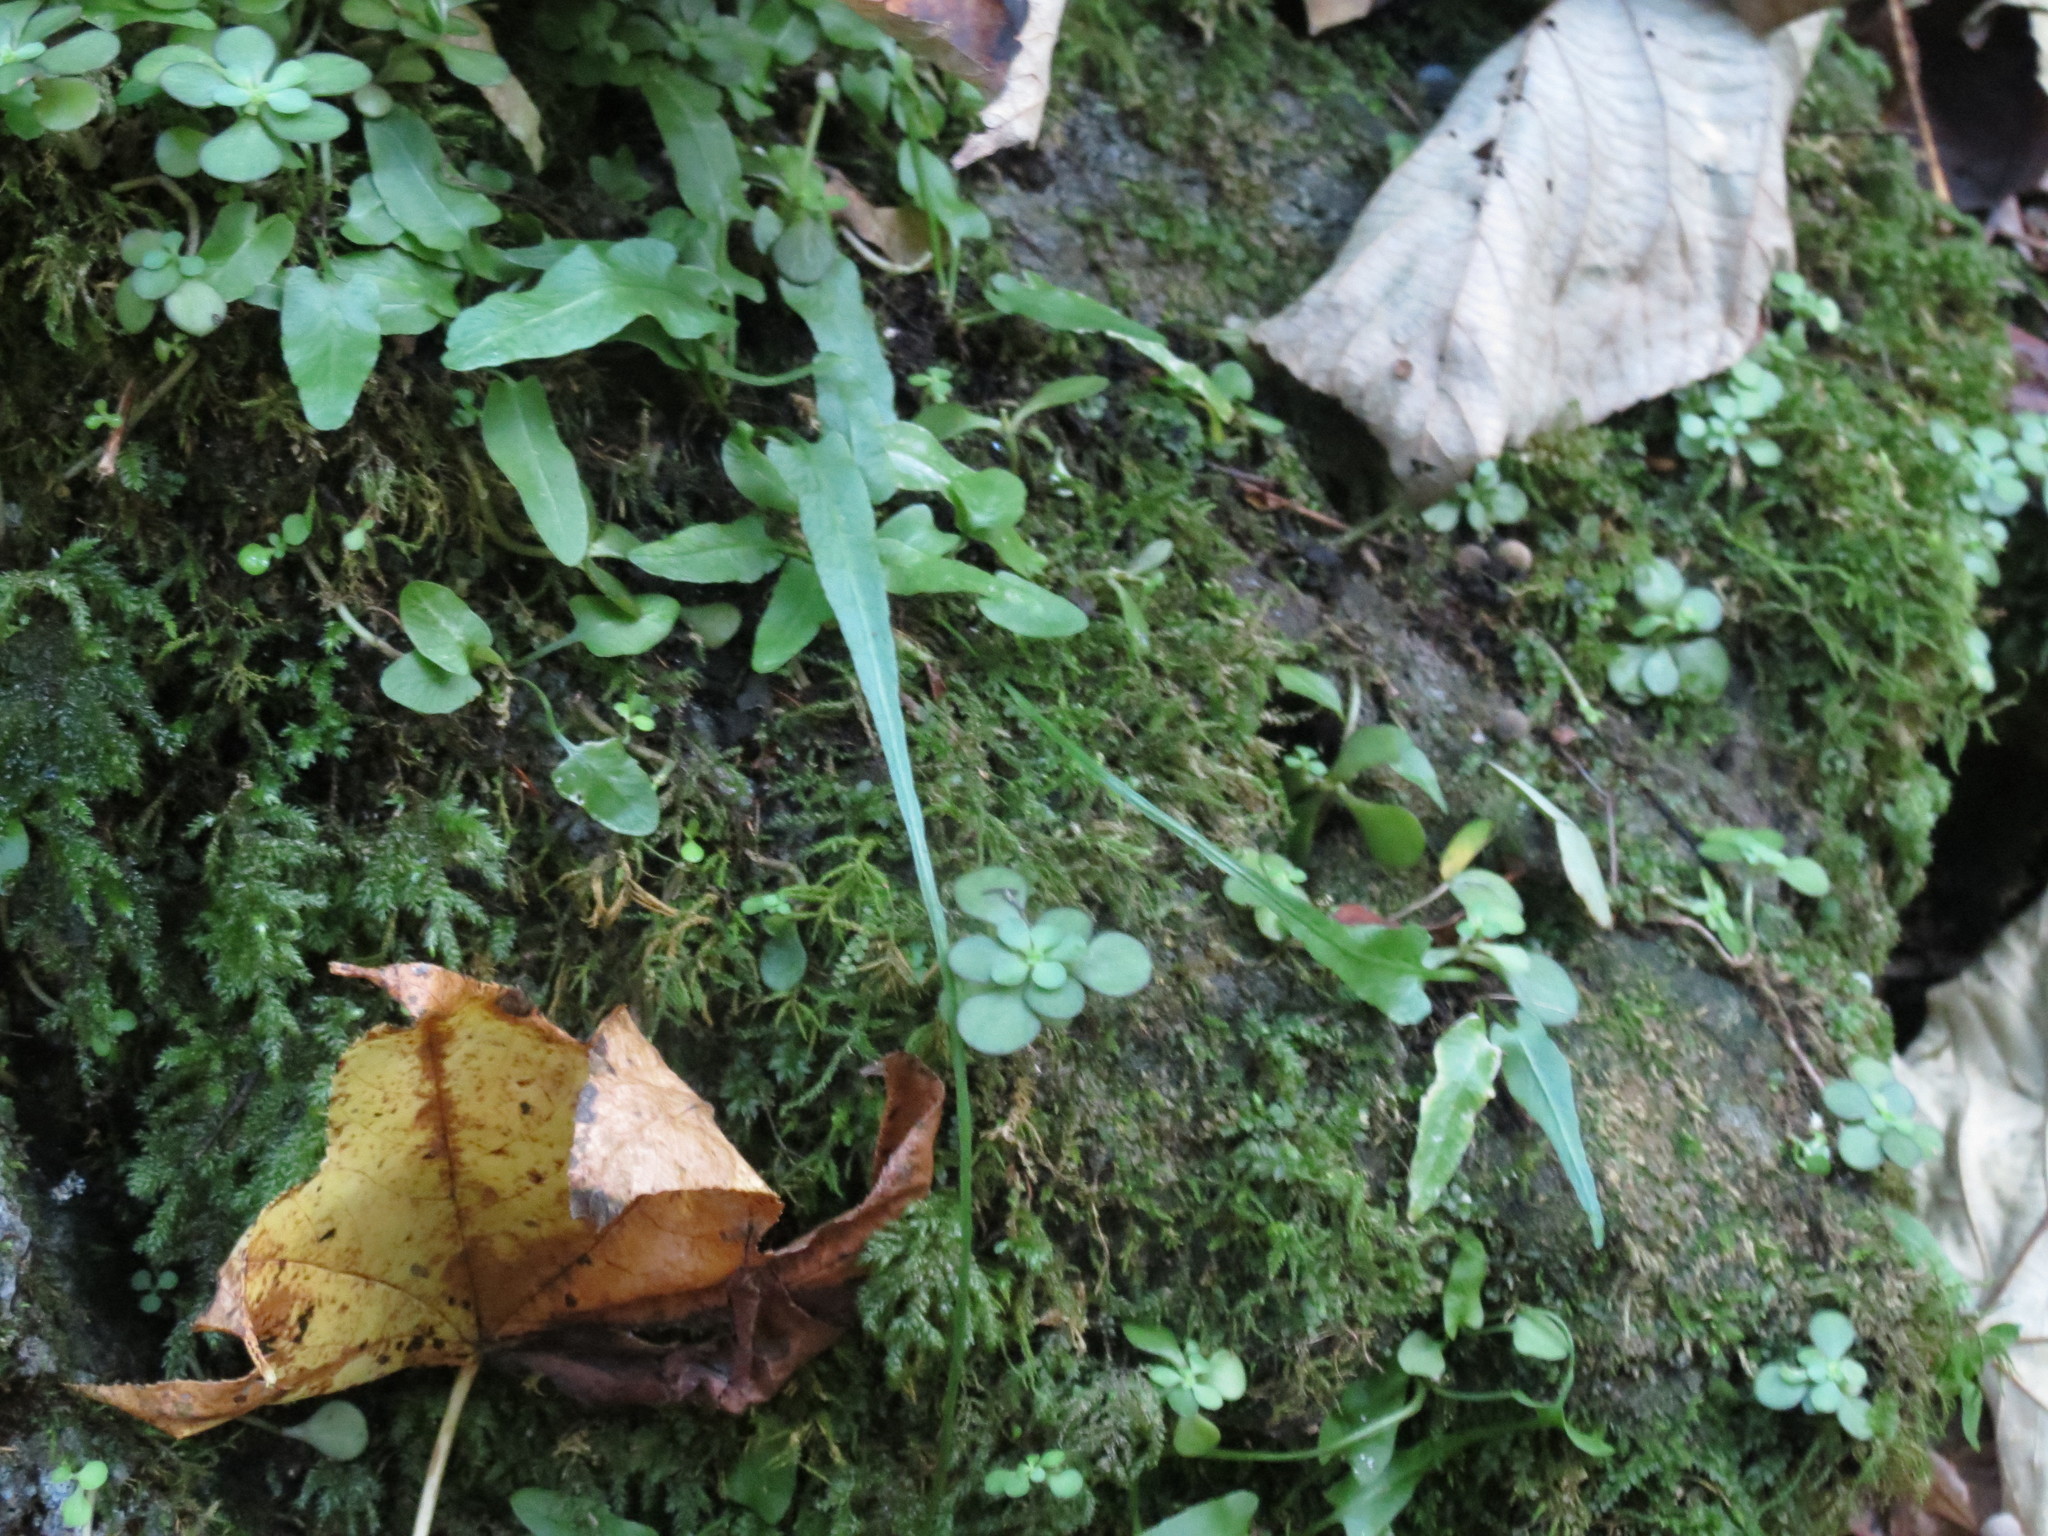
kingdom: Plantae
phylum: Tracheophyta
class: Polypodiopsida
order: Polypodiales
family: Aspleniaceae
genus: Asplenium
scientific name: Asplenium rhizophyllum
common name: Walking fern
